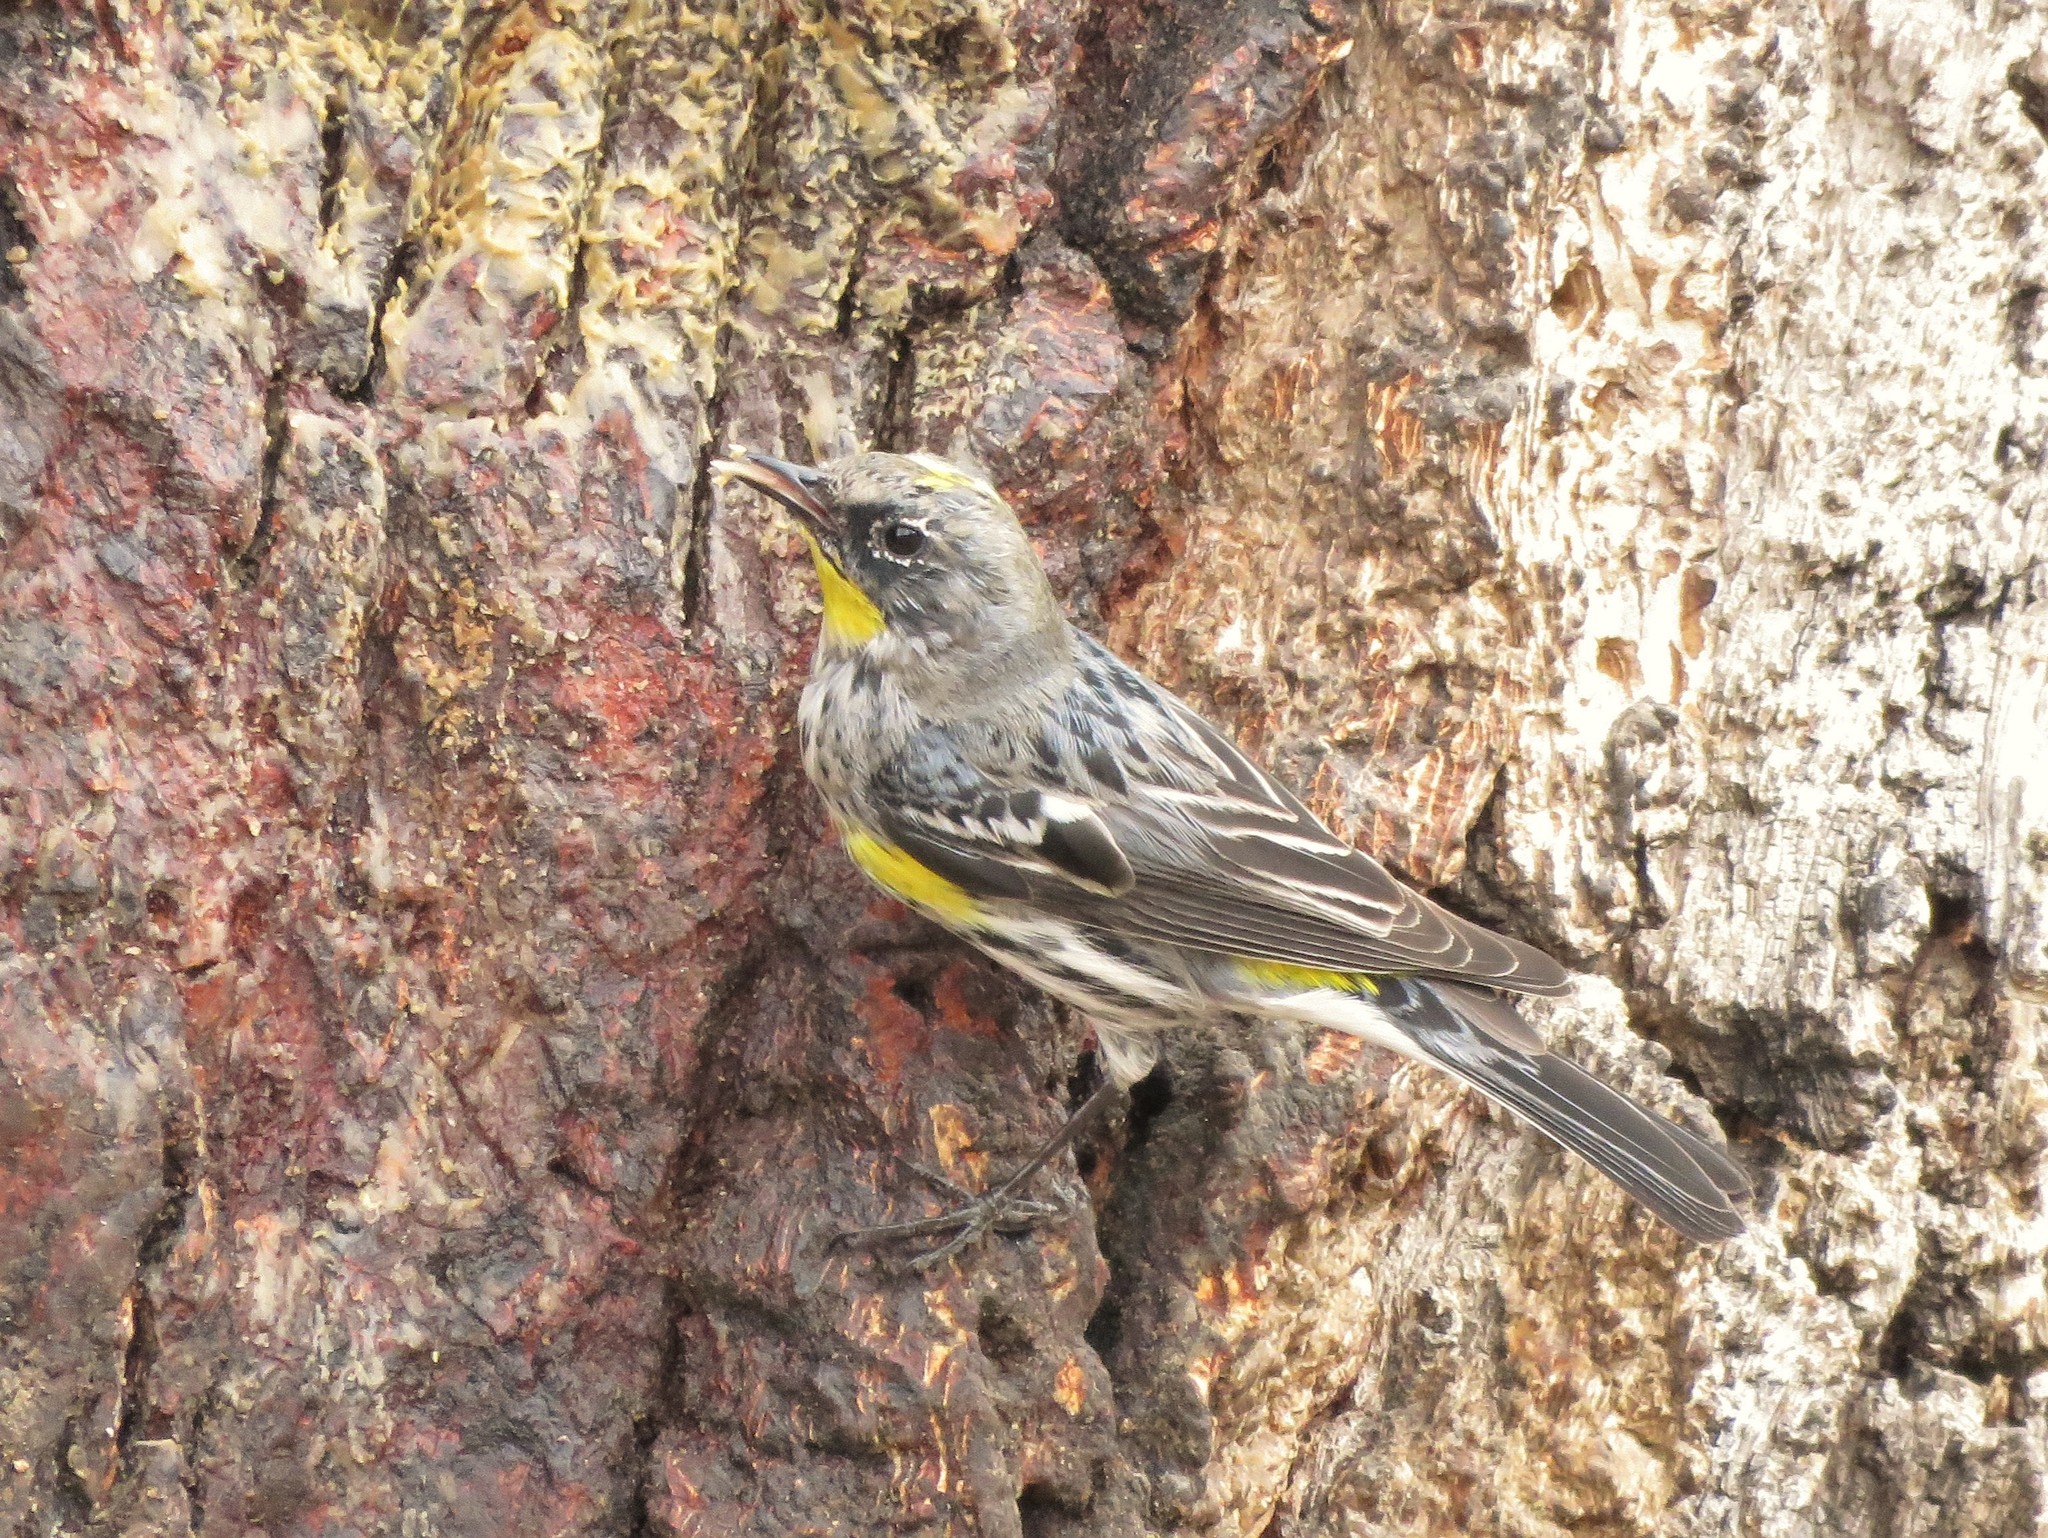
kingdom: Animalia
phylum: Chordata
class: Aves
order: Passeriformes
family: Parulidae
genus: Setophaga
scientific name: Setophaga auduboni
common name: Audubon's warbler
